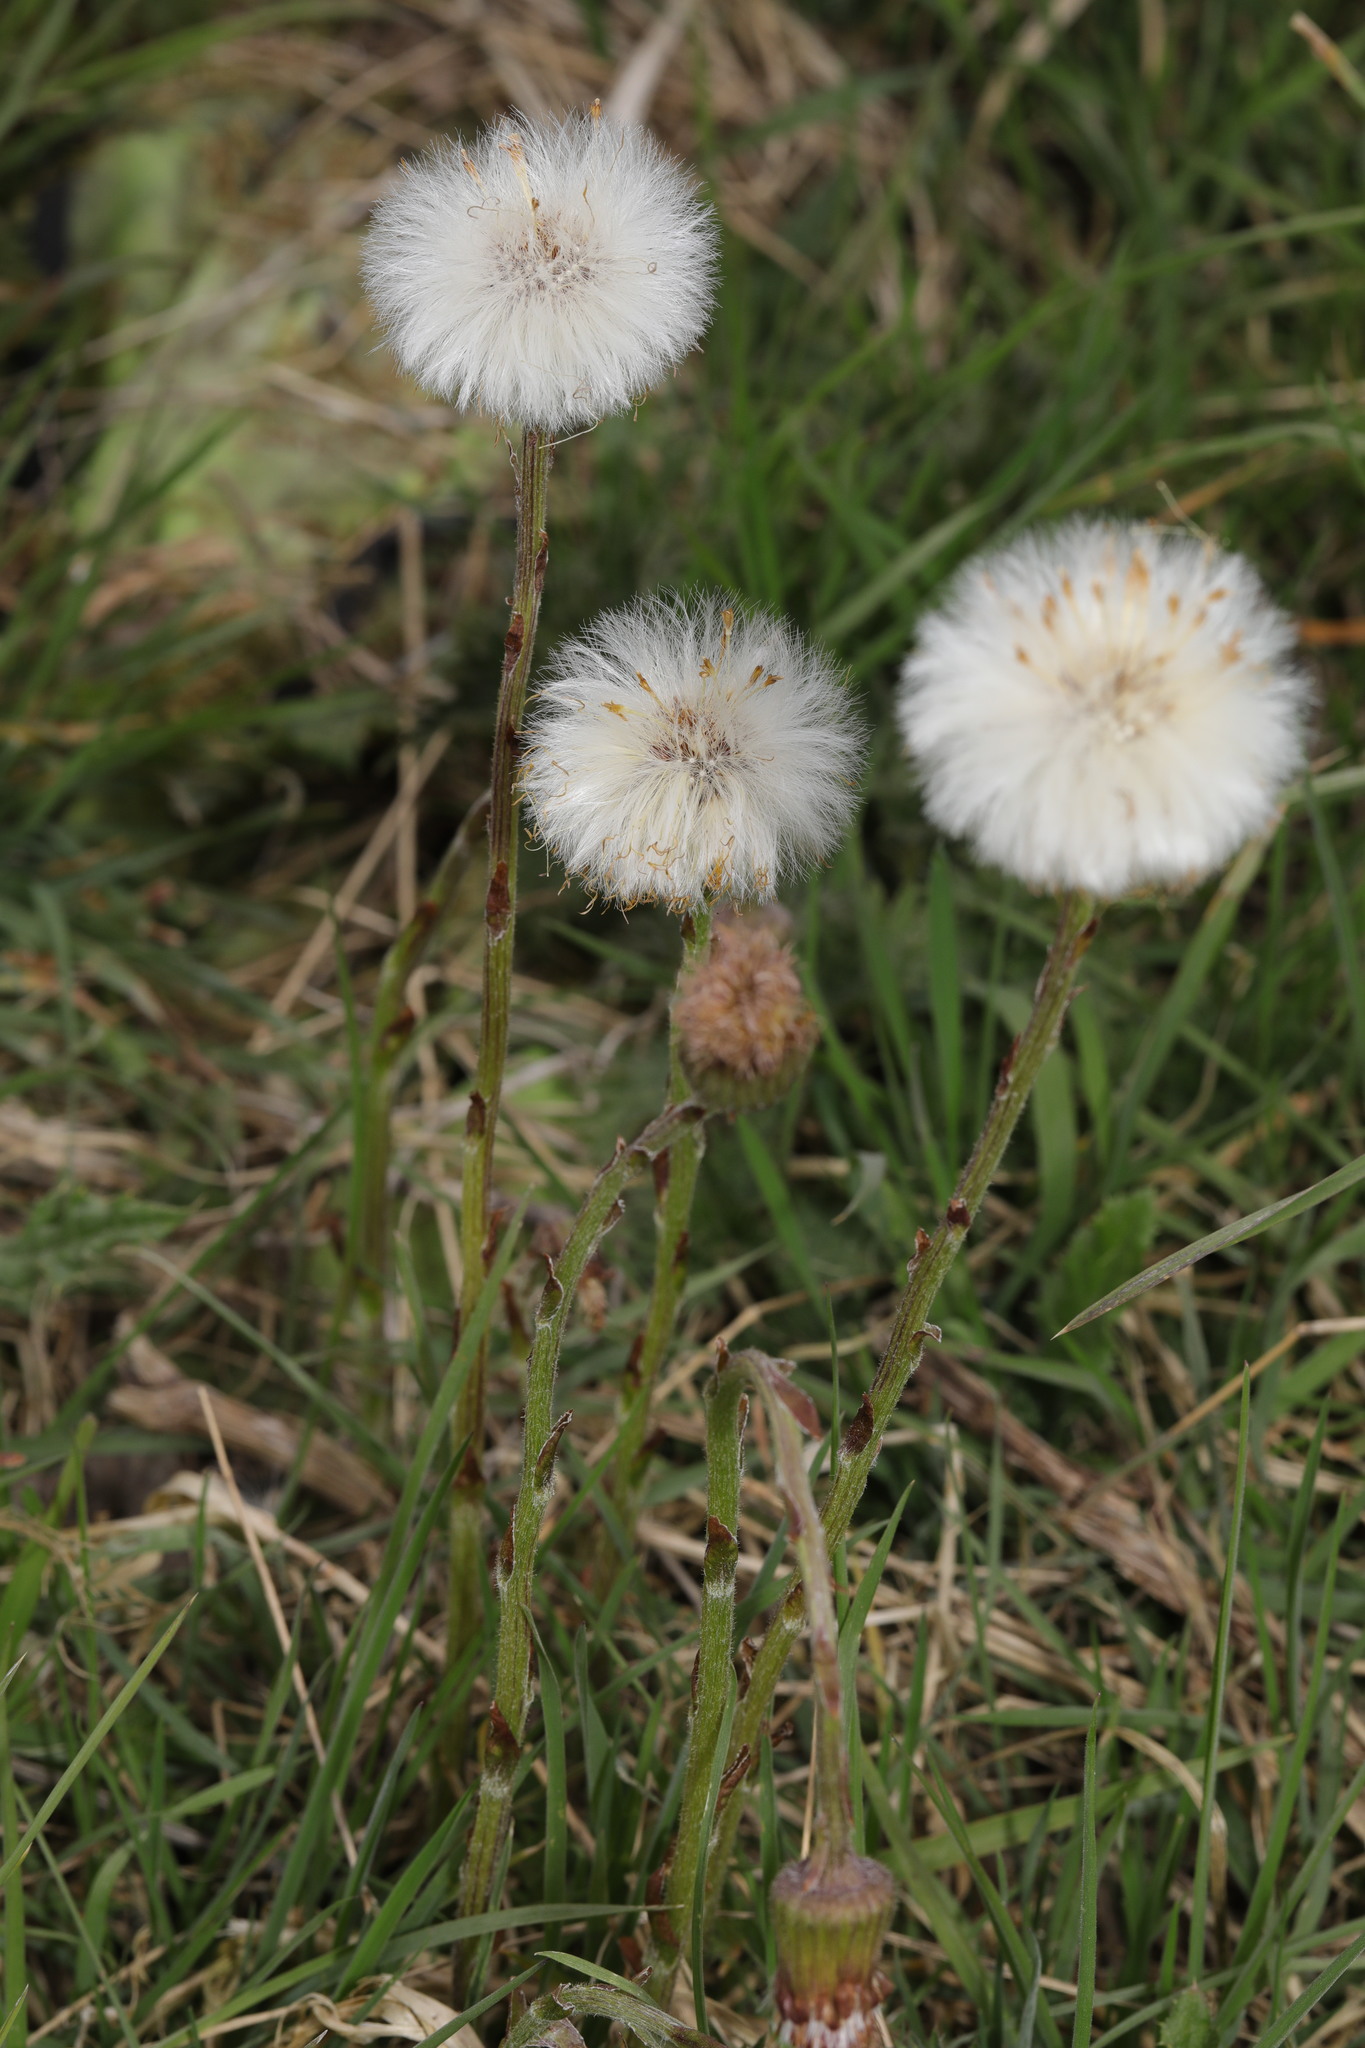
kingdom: Plantae
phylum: Tracheophyta
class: Magnoliopsida
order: Asterales
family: Asteraceae
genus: Tussilago
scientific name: Tussilago farfara
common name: Coltsfoot
